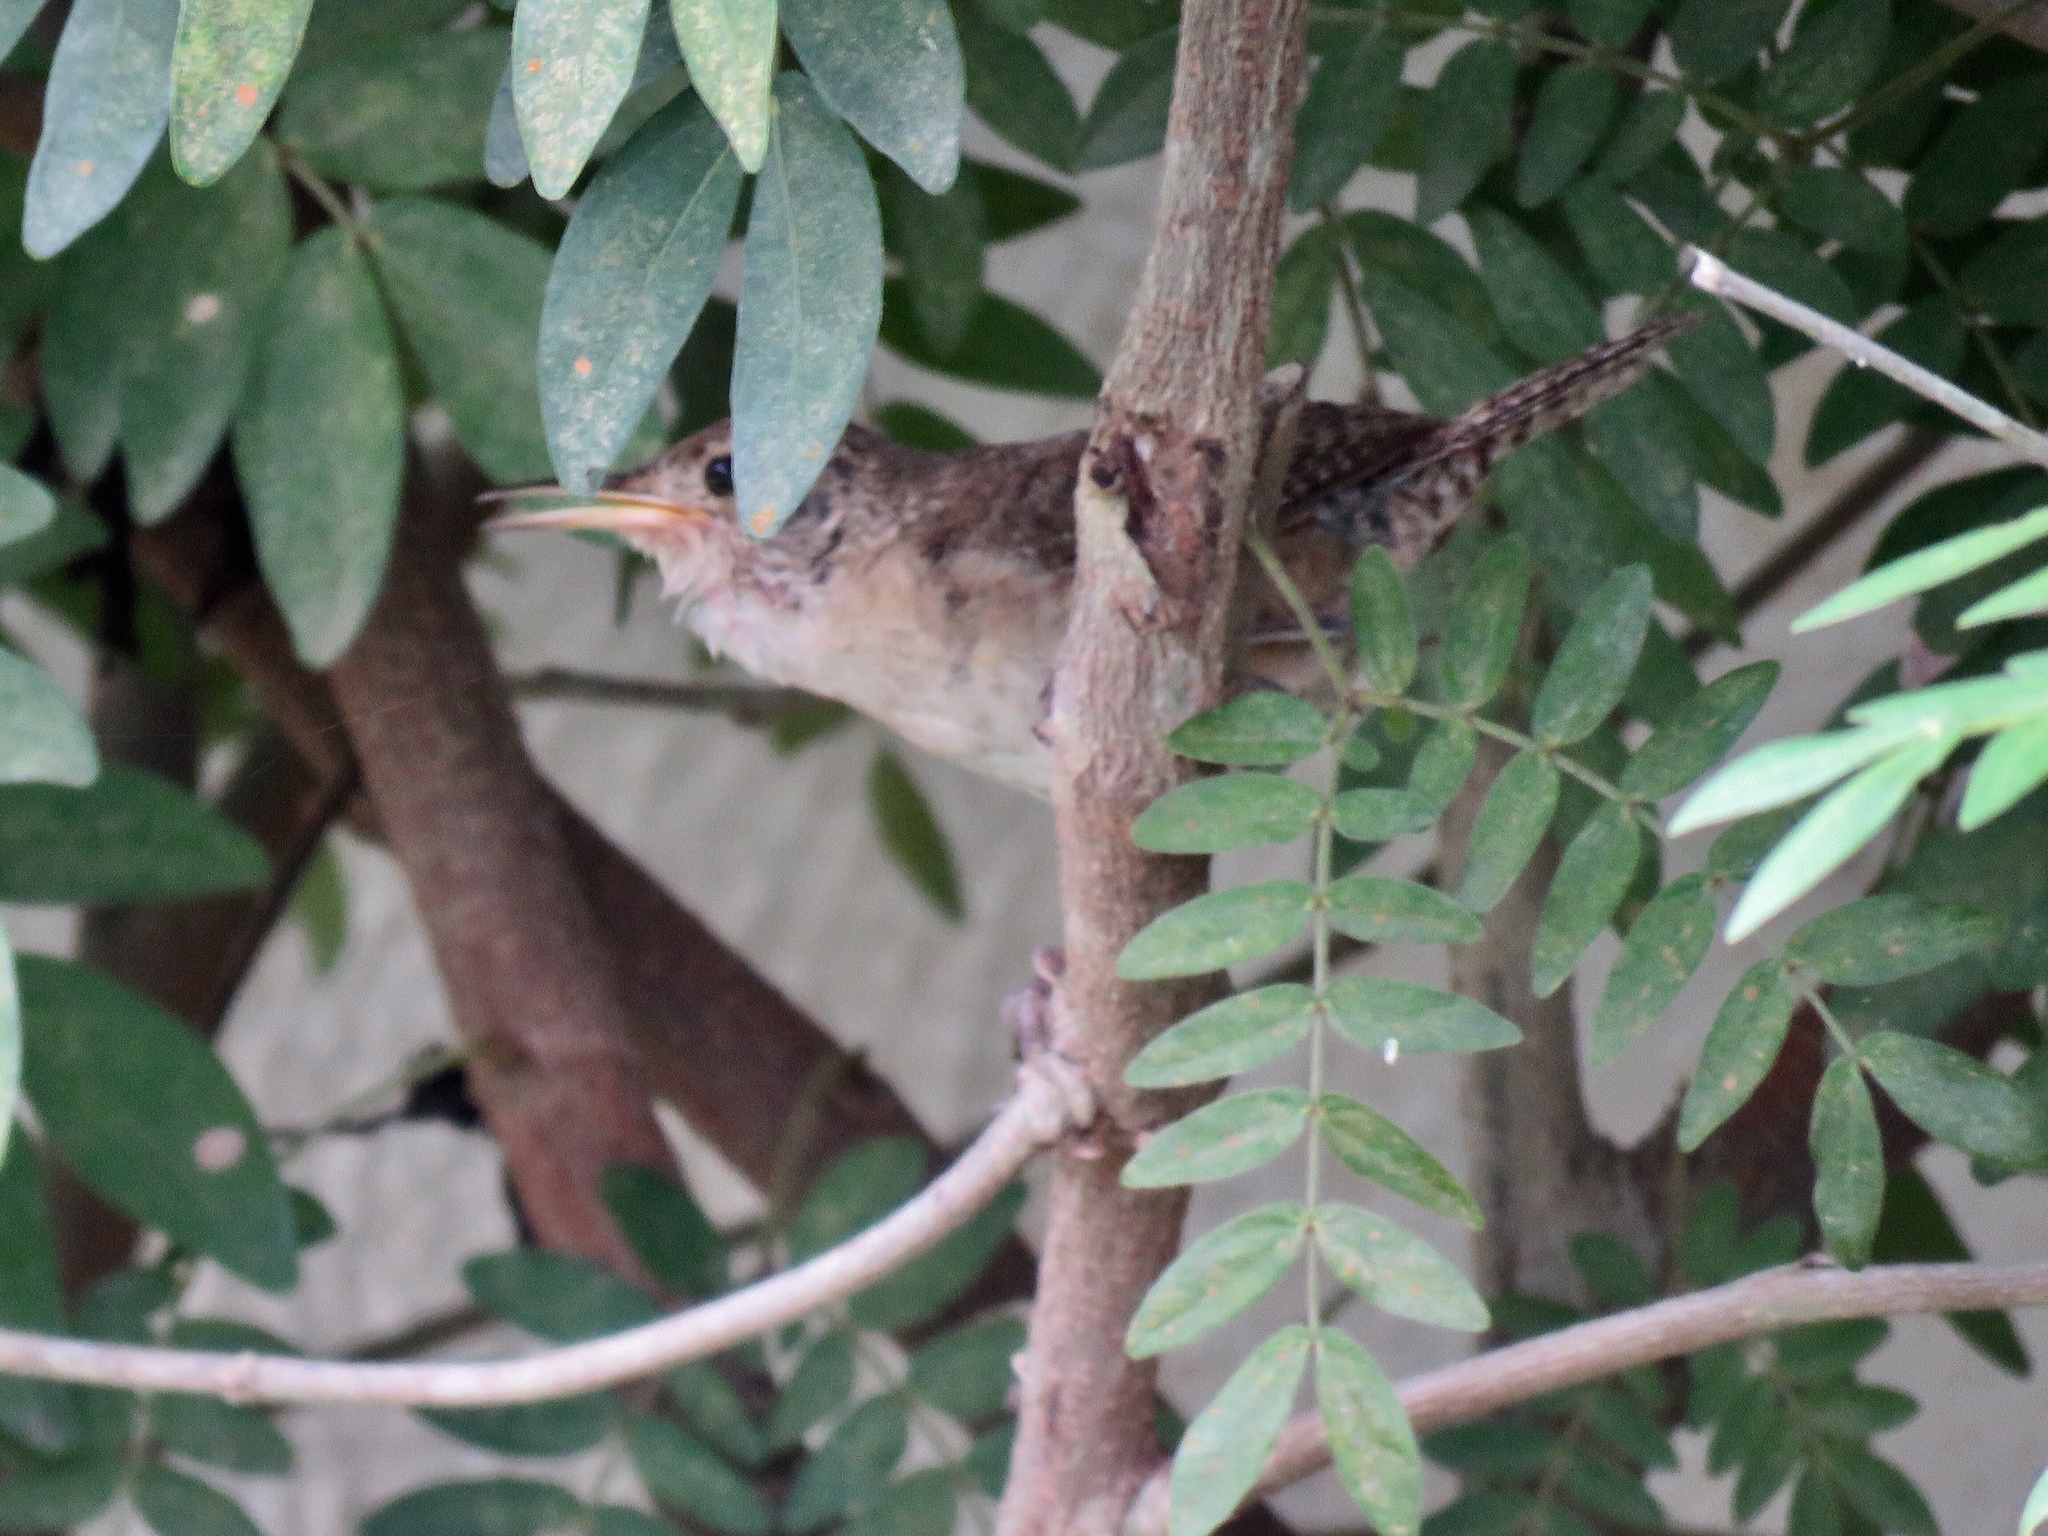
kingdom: Animalia
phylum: Chordata
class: Aves
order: Passeriformes
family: Troglodytidae
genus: Troglodytes
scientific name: Troglodytes aedon
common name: House wren
